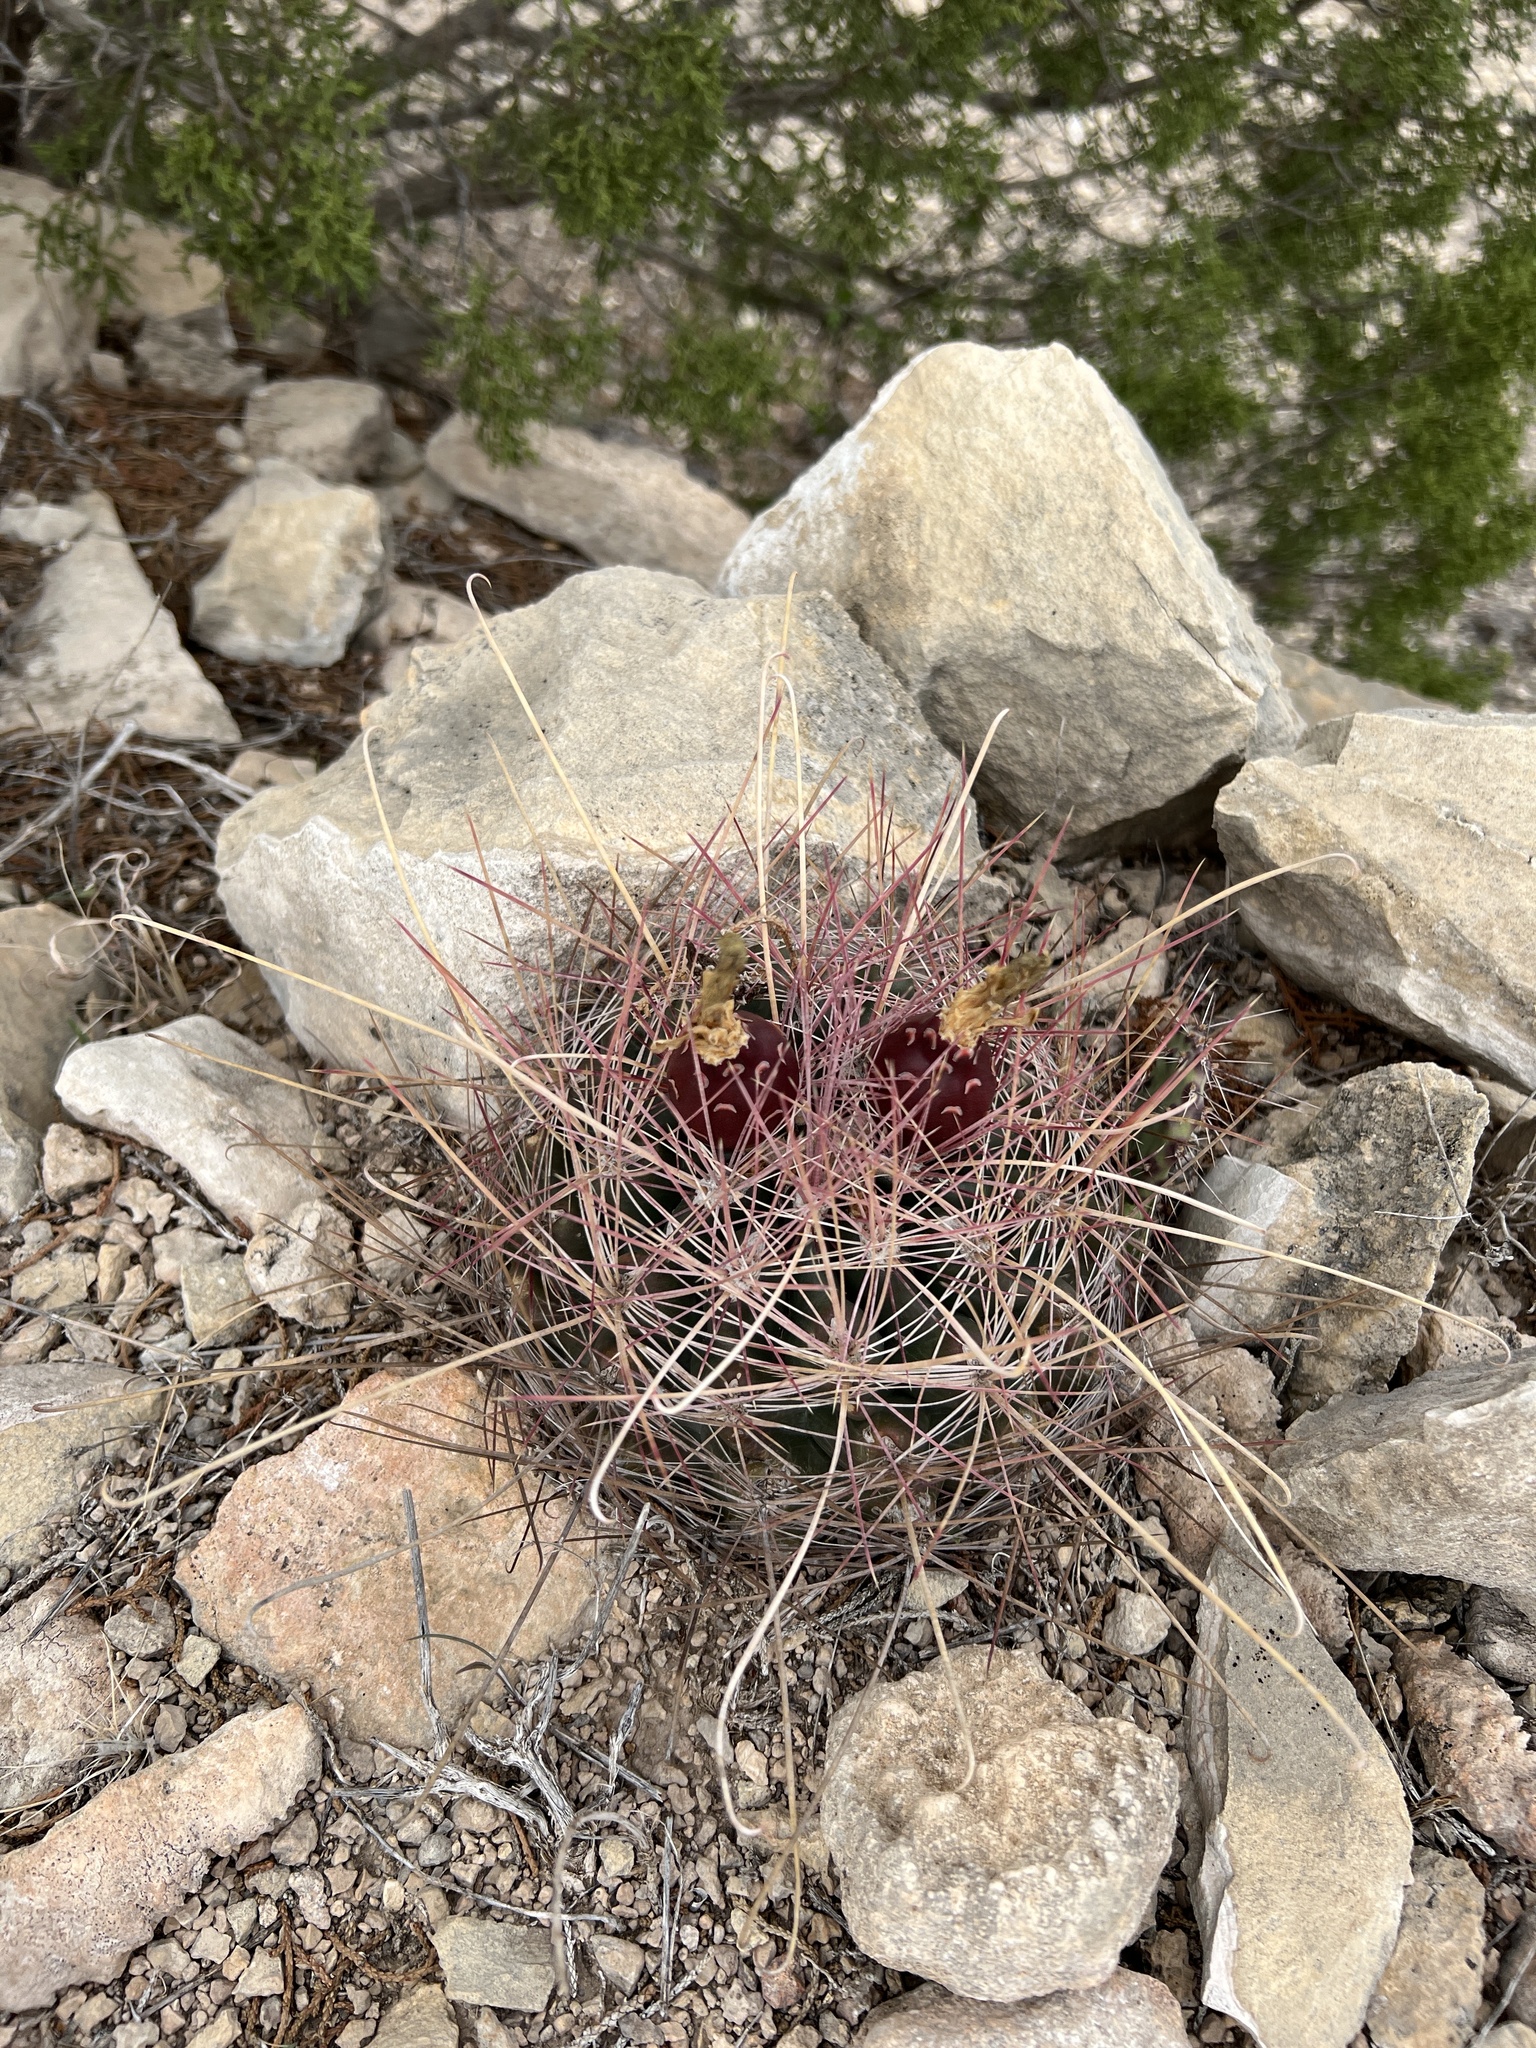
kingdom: Plantae
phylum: Tracheophyta
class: Magnoliopsida
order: Caryophyllales
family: Cactaceae
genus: Bisnaga
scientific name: Bisnaga hamatacantha
